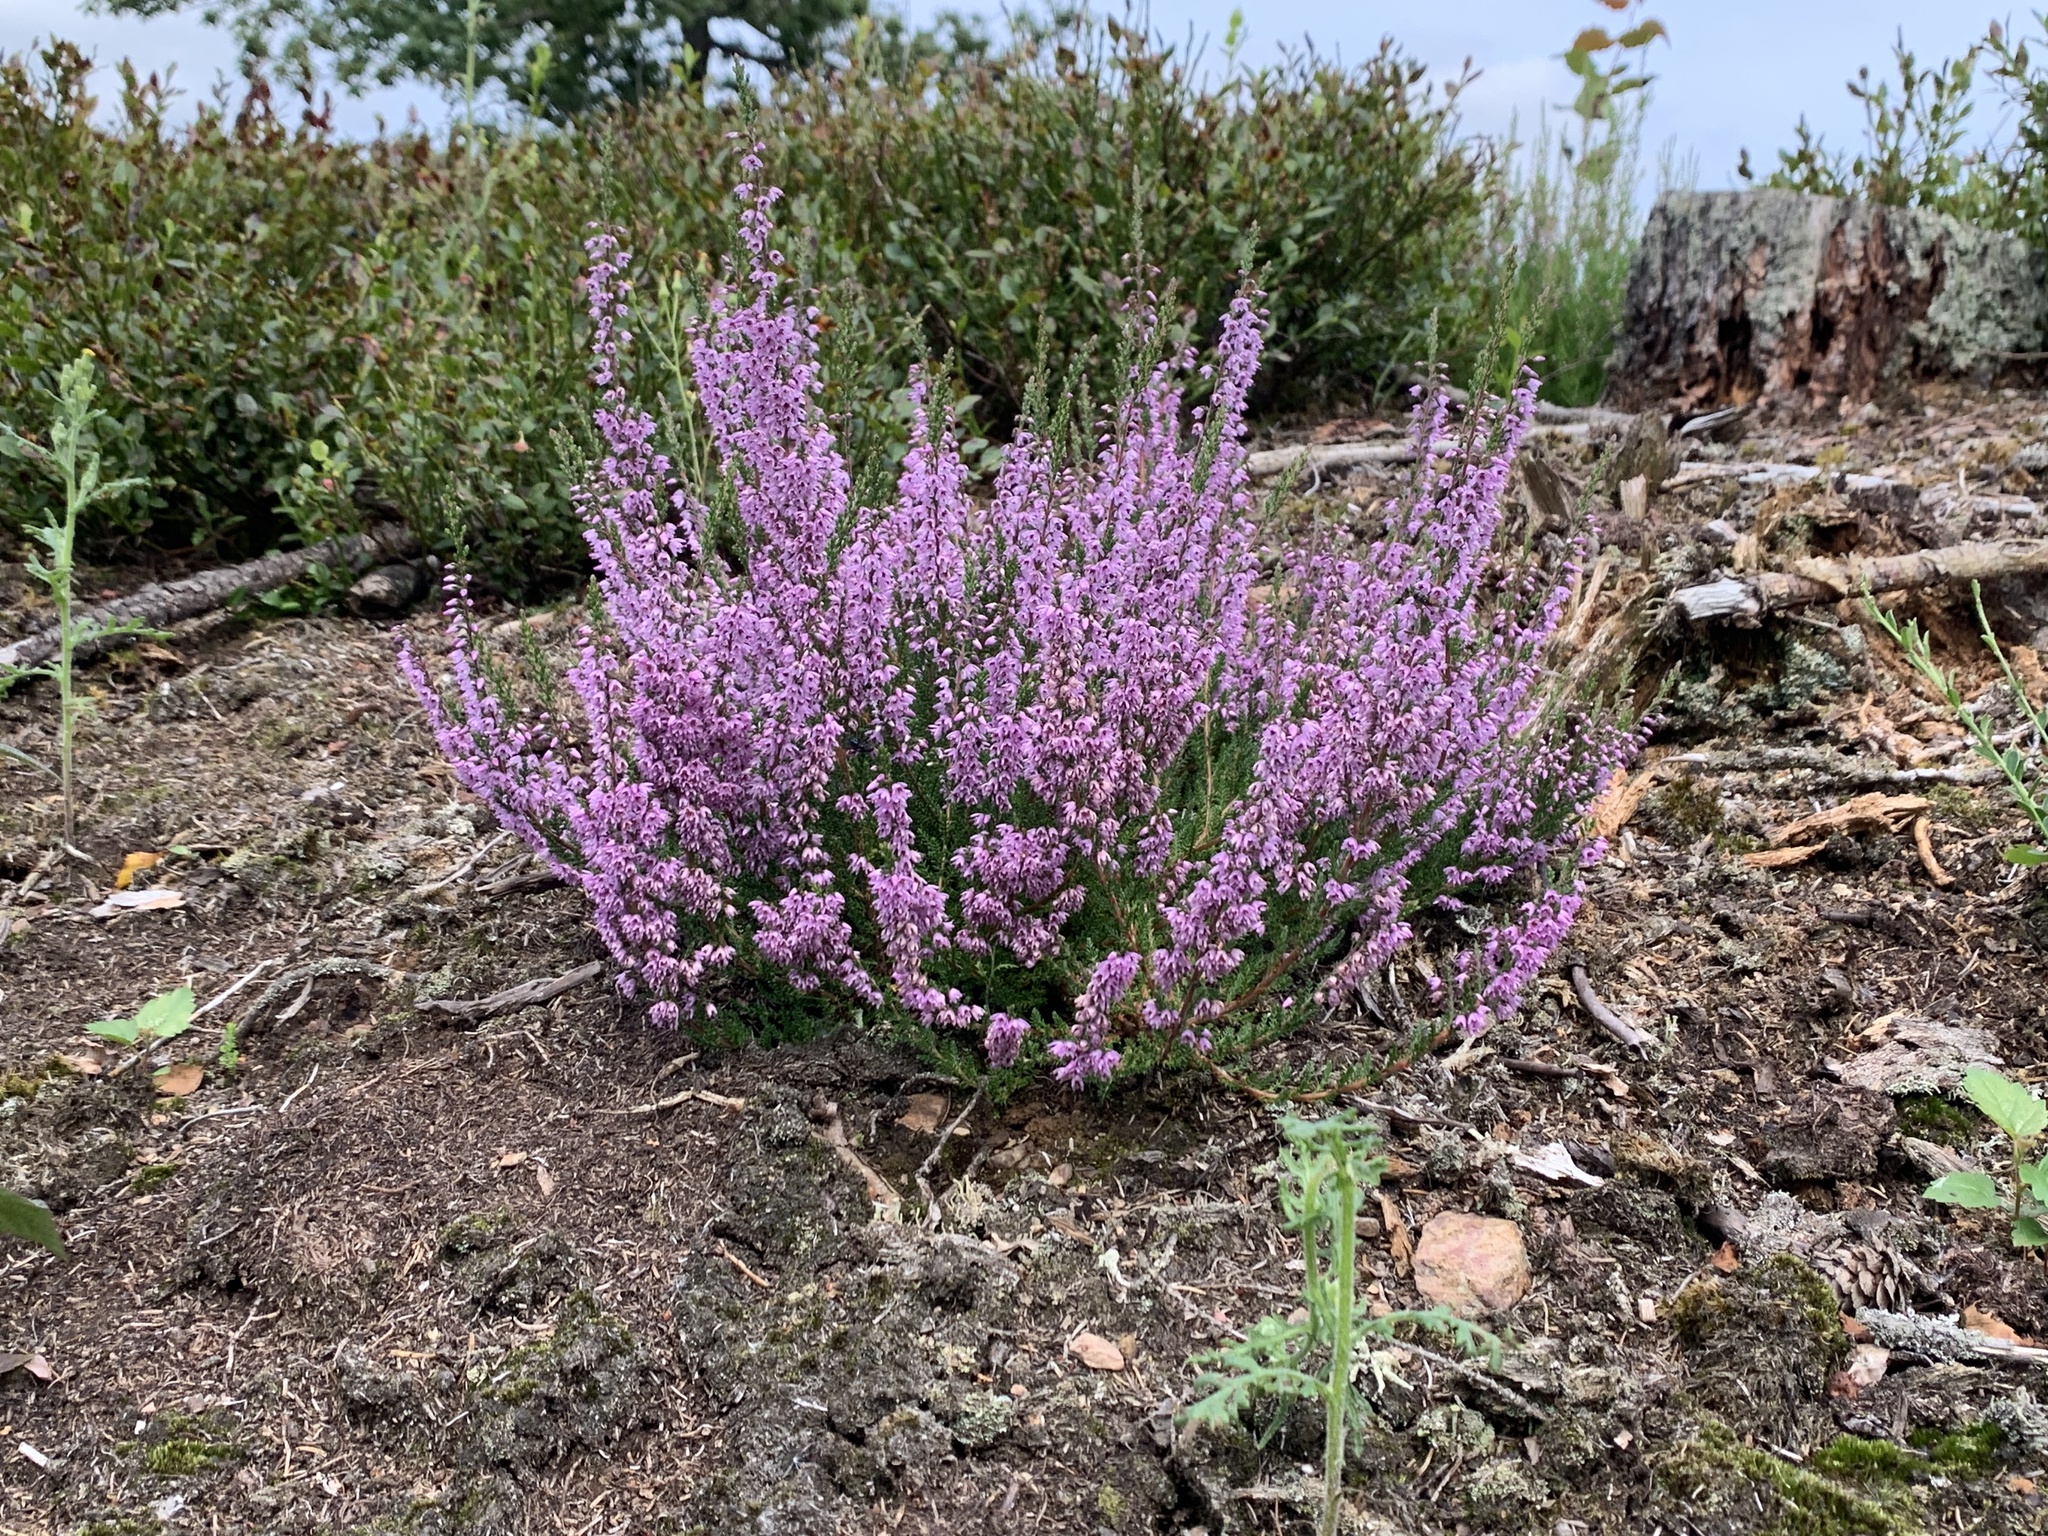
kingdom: Plantae
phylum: Tracheophyta
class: Magnoliopsida
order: Ericales
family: Ericaceae
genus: Calluna
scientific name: Calluna vulgaris
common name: Heather
